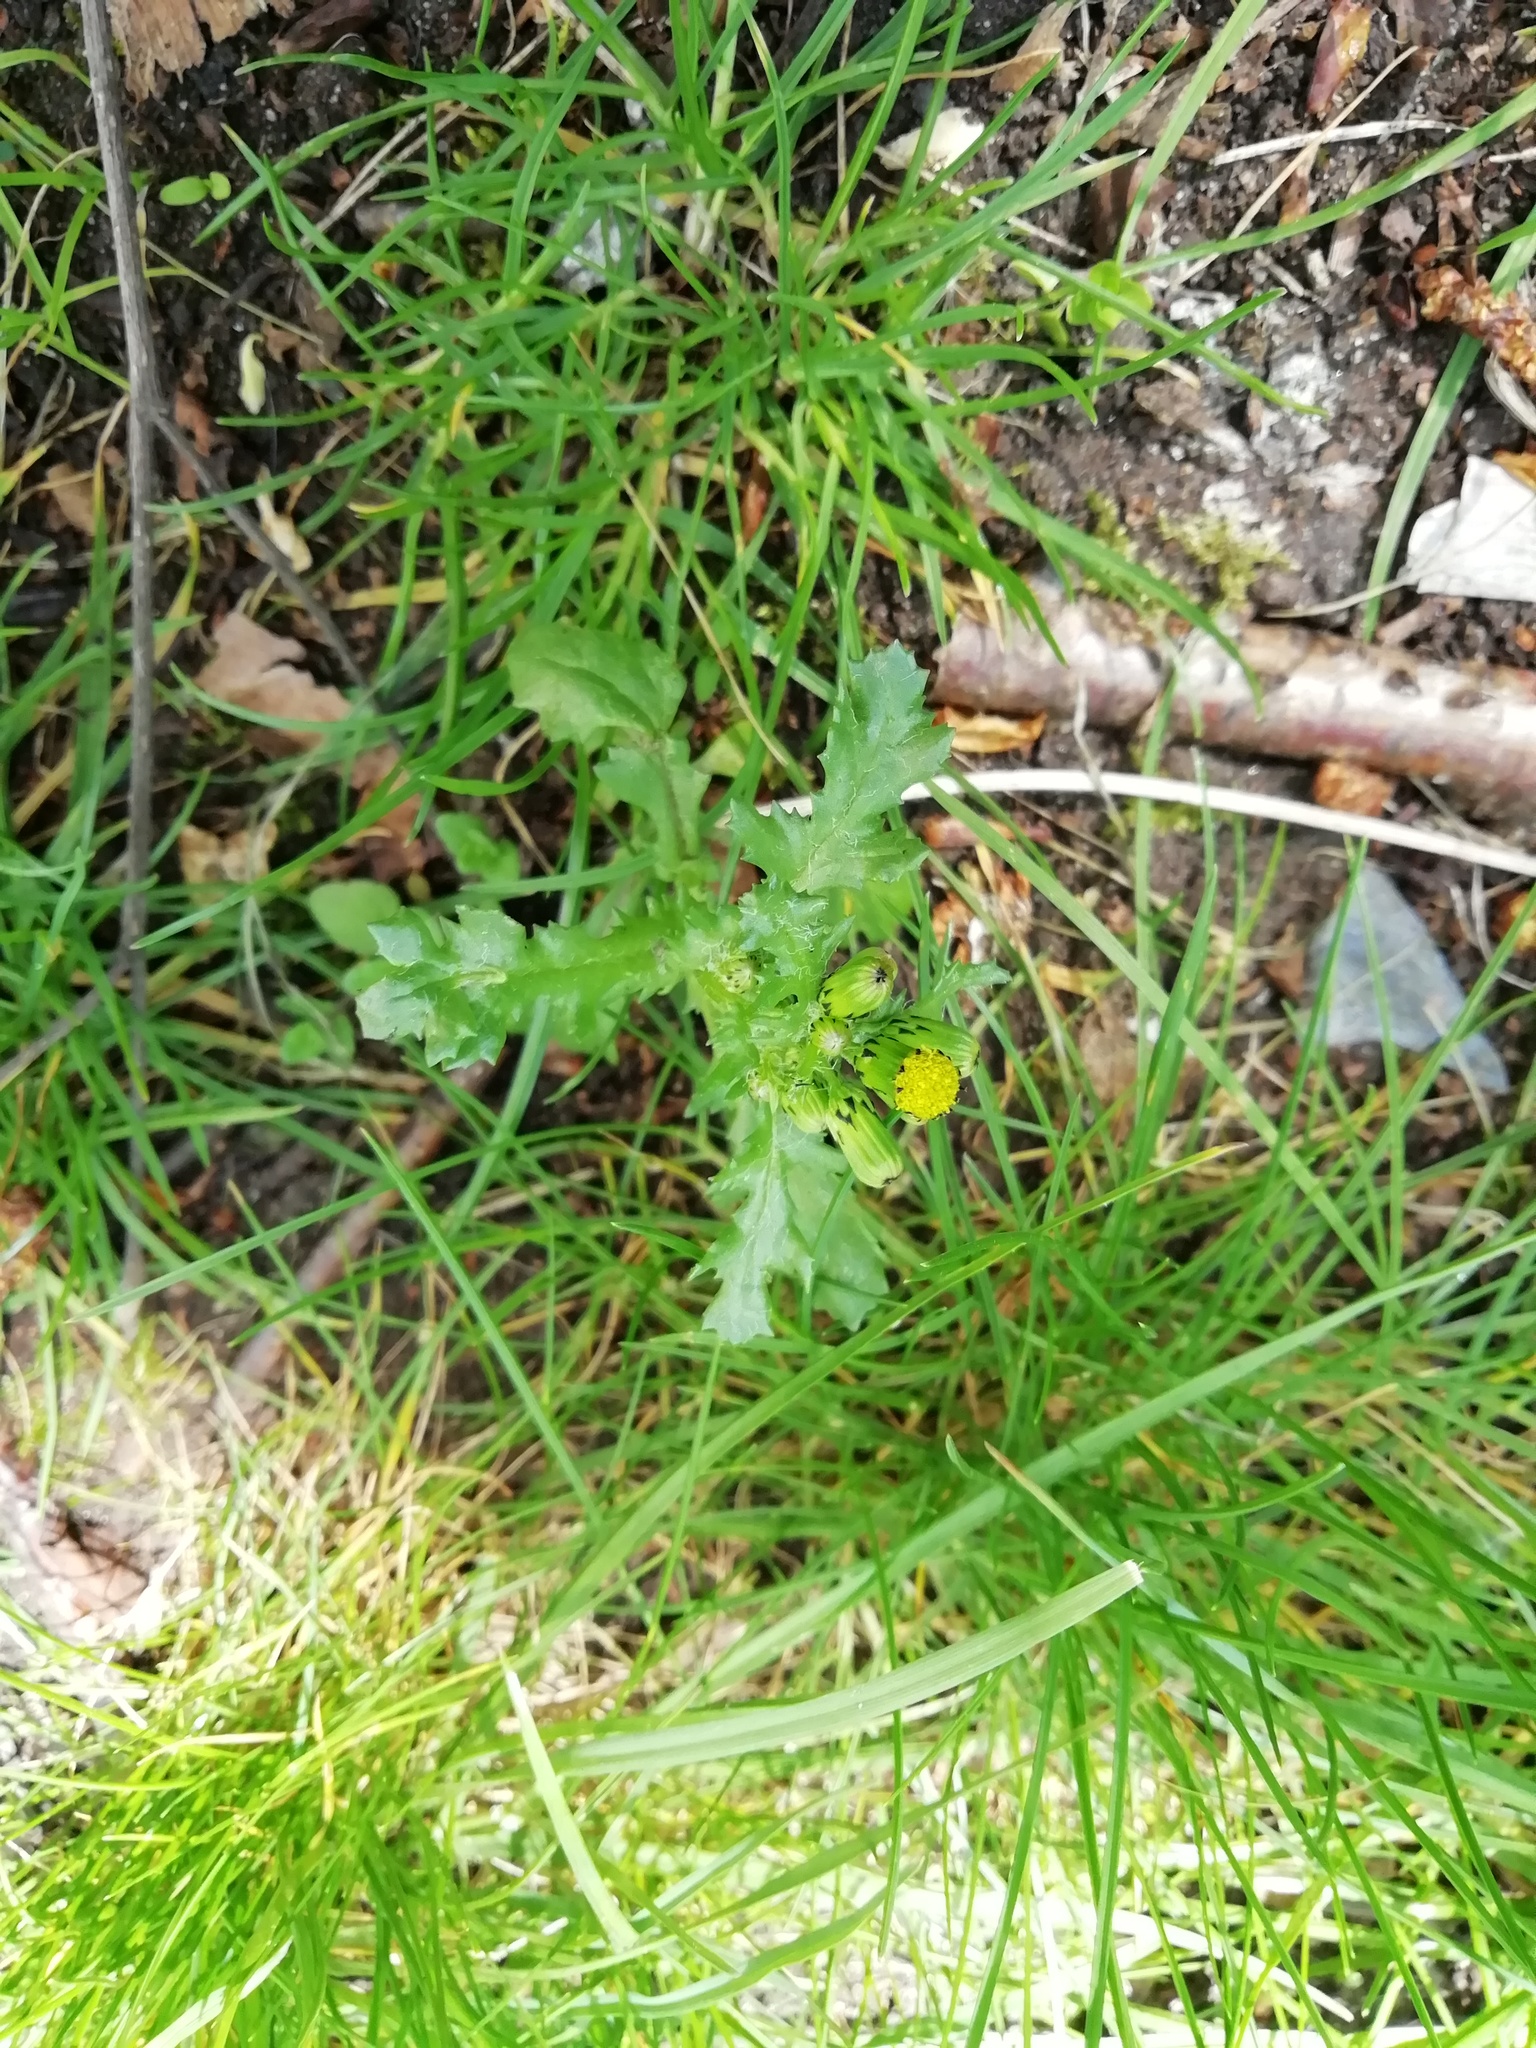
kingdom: Plantae
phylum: Tracheophyta
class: Magnoliopsida
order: Asterales
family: Asteraceae
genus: Senecio
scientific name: Senecio vulgaris
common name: Old-man-in-the-spring
